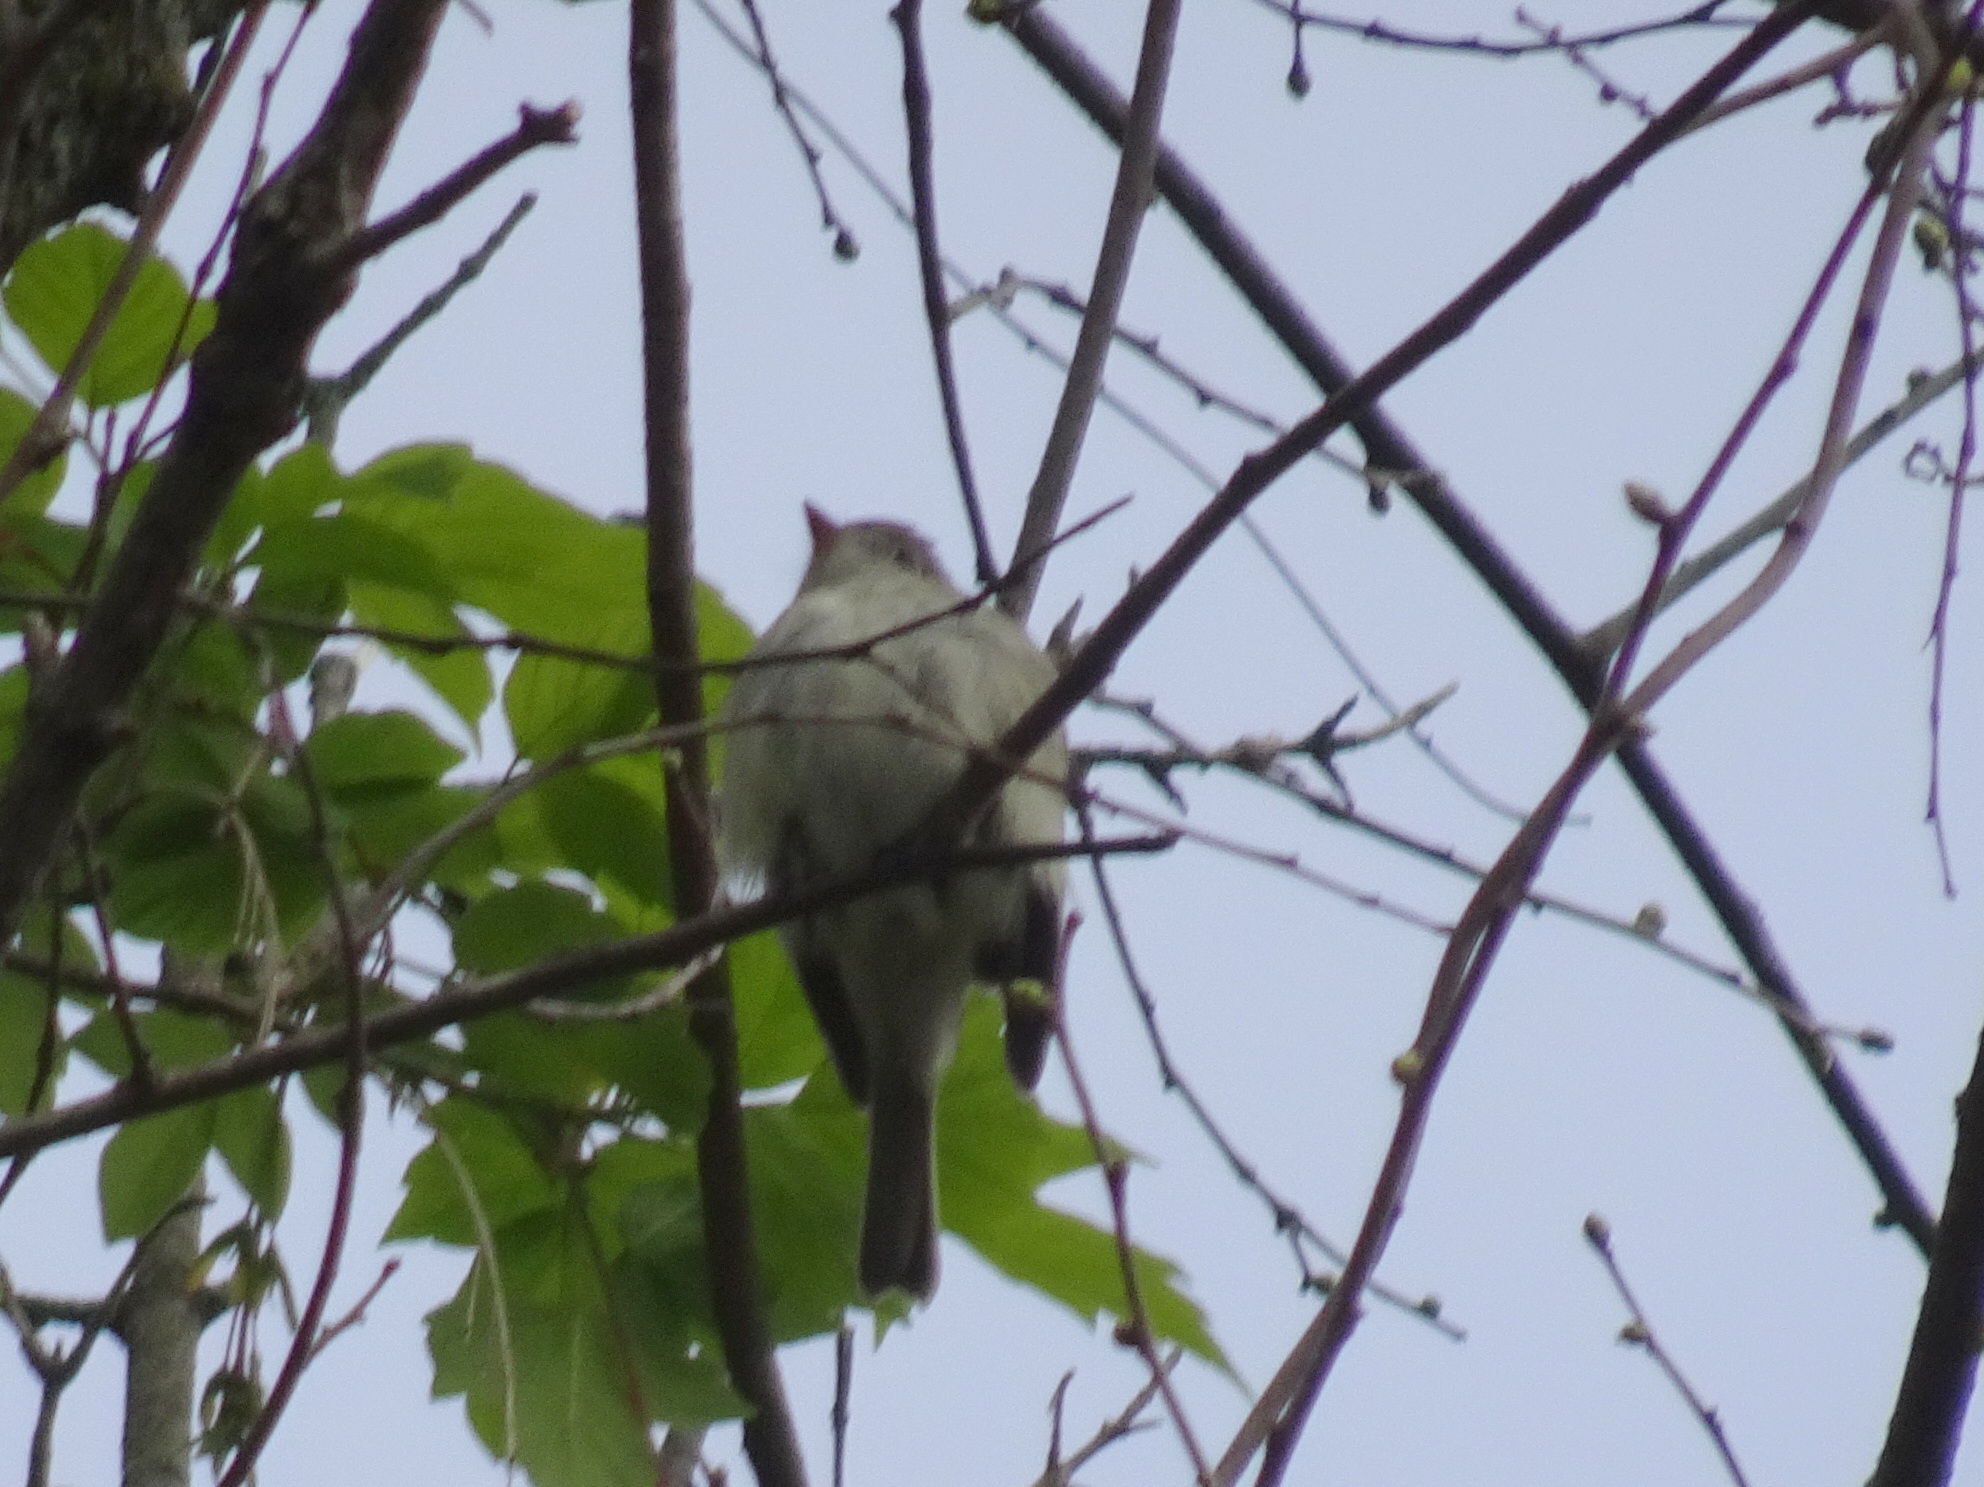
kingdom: Animalia
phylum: Chordata
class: Aves
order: Passeriformes
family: Tyrannidae
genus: Empidonax
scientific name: Empidonax minimus
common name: Least flycatcher
